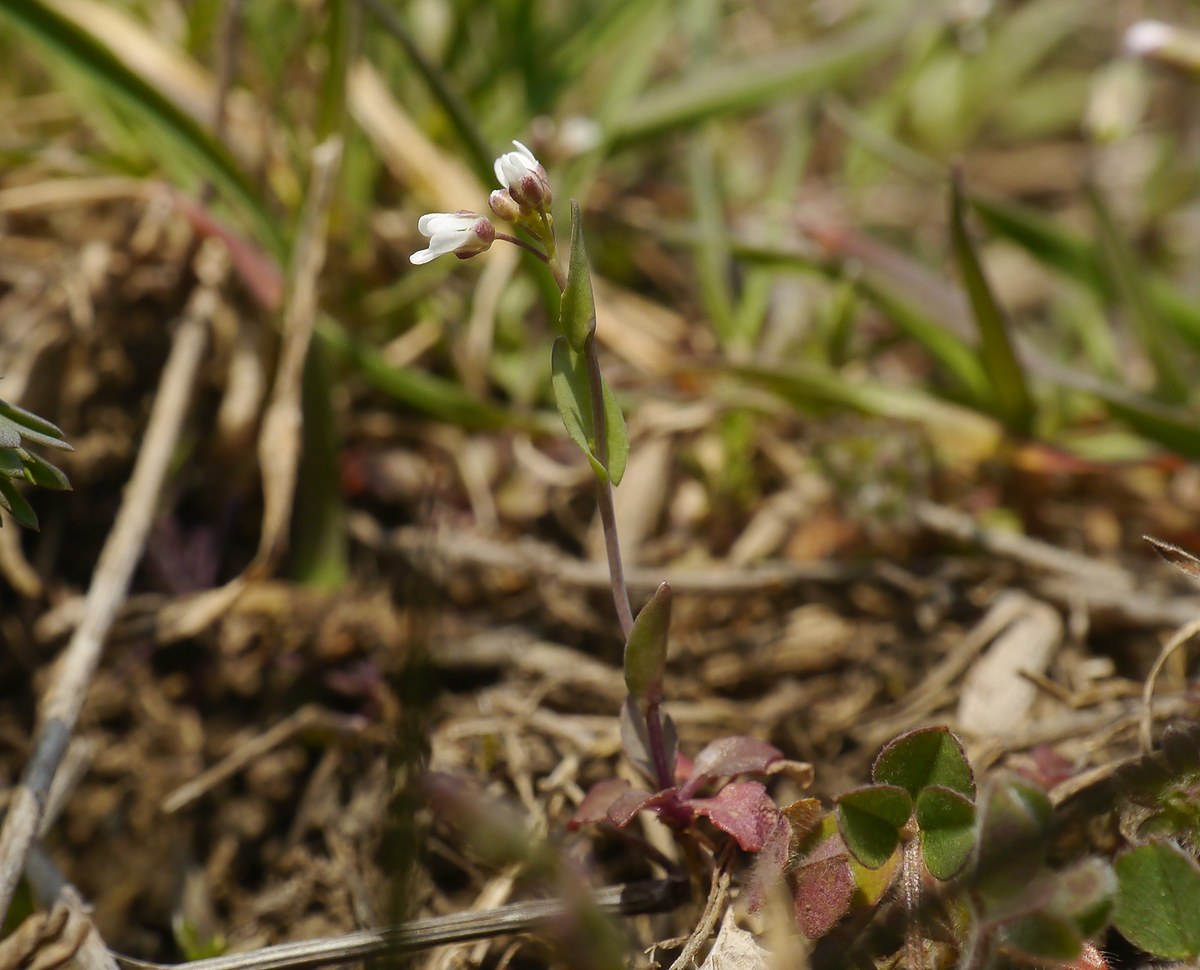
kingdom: Plantae
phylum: Tracheophyta
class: Magnoliopsida
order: Brassicales
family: Brassicaceae
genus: Noccaea
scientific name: Noccaea perfoliata
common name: Perfoliate pennycress
